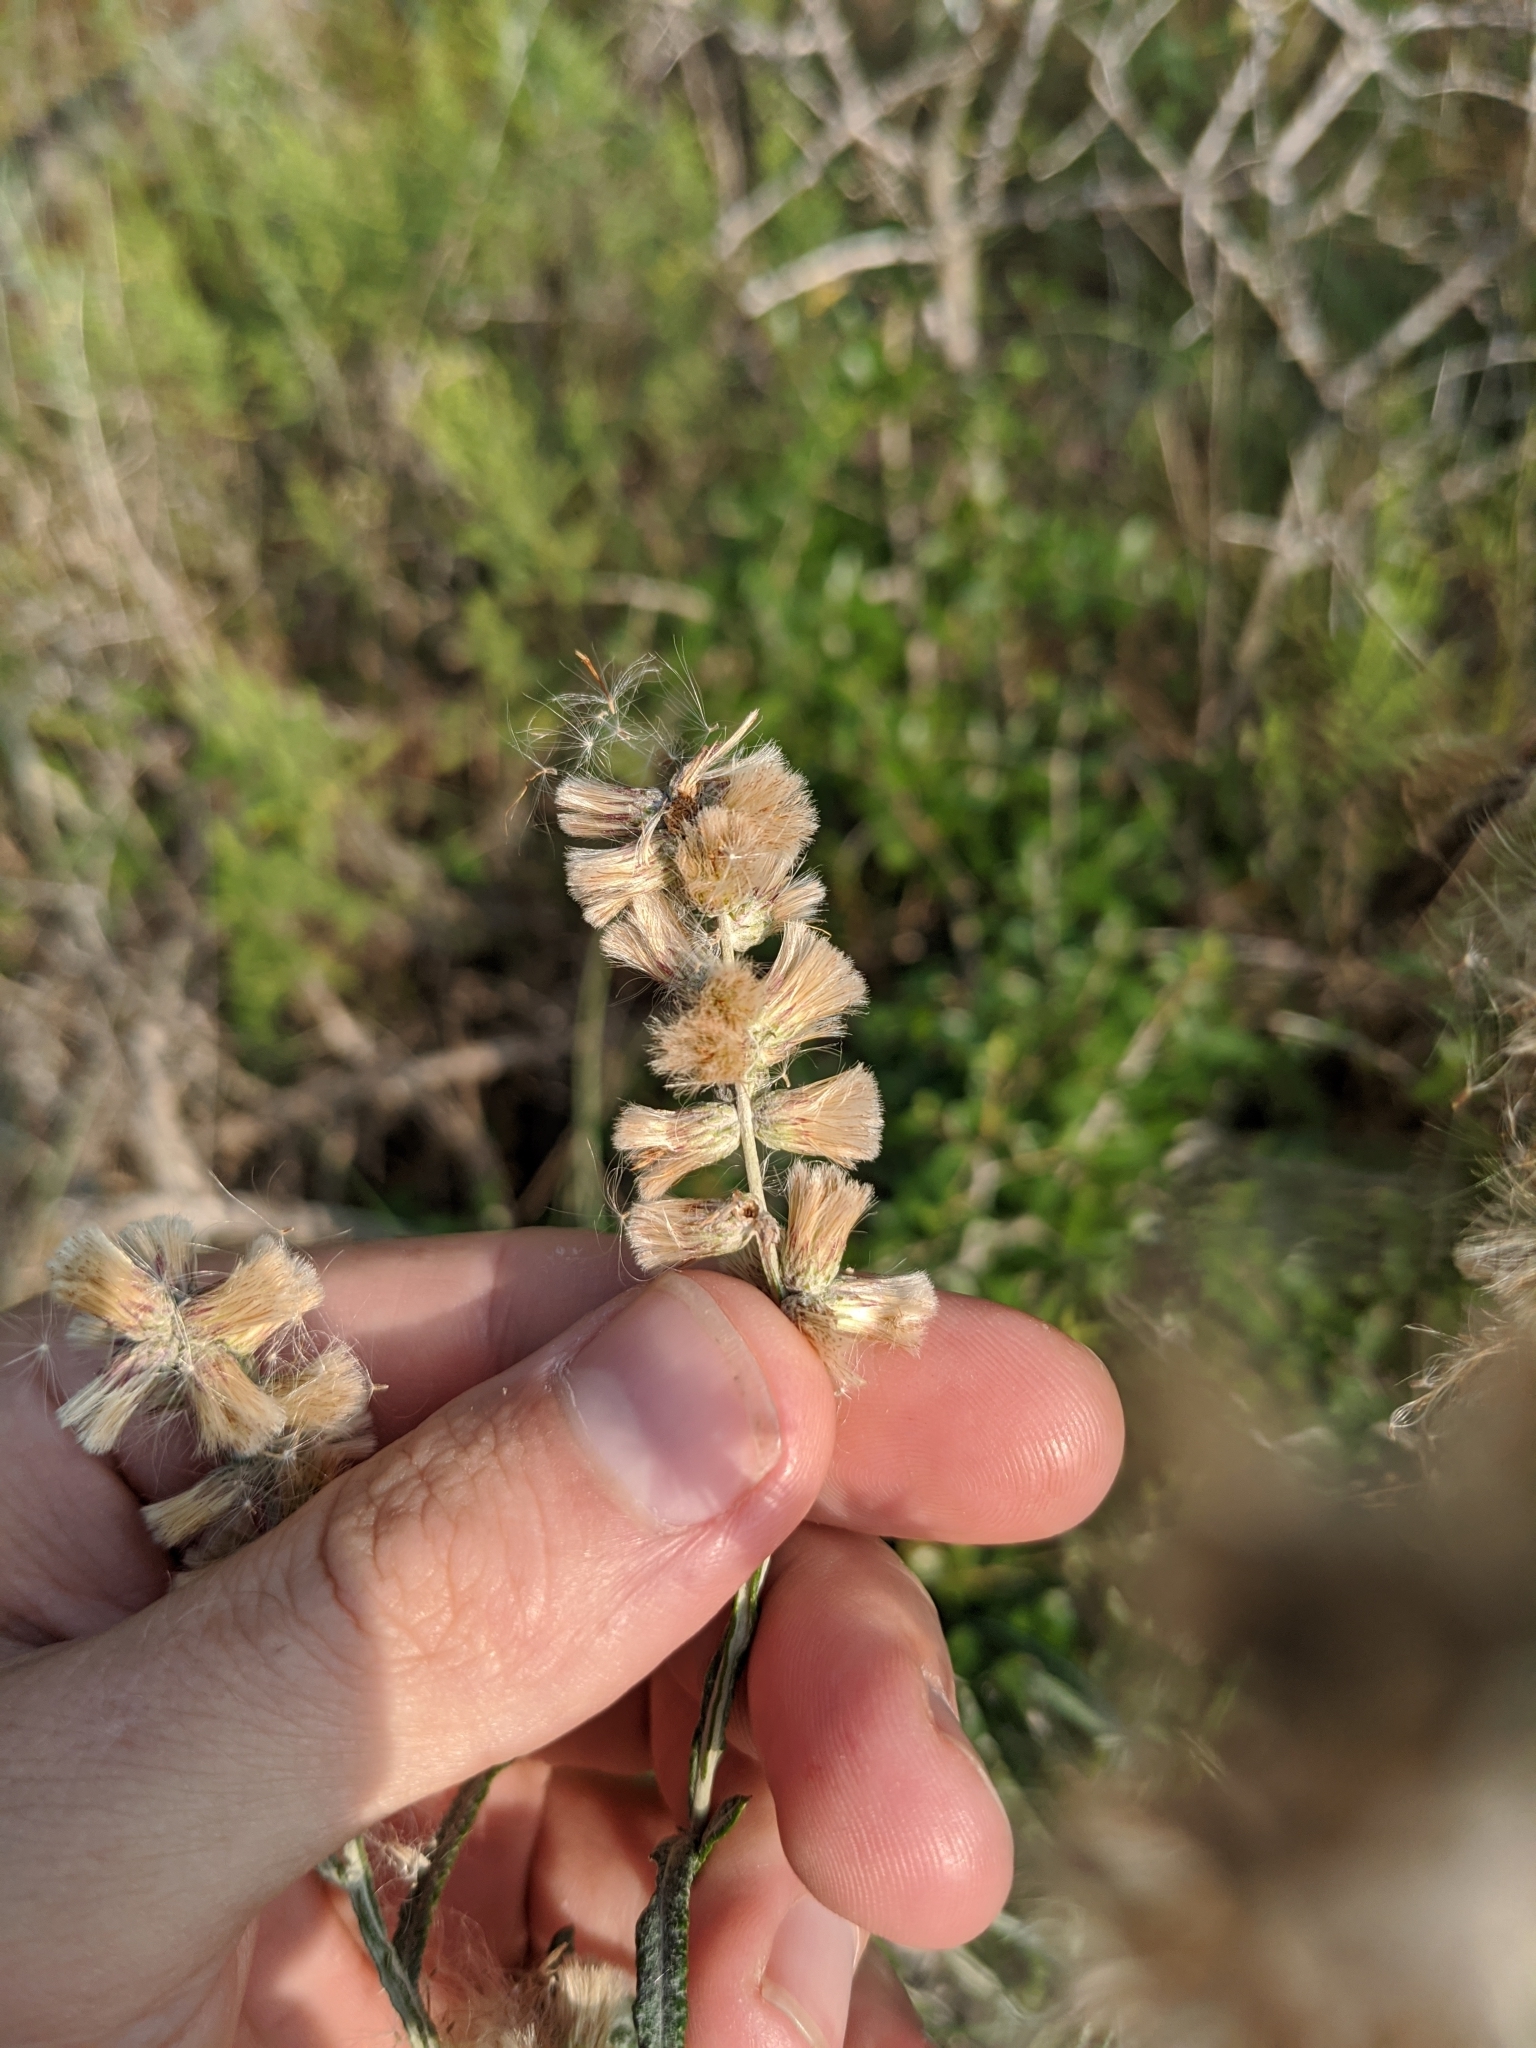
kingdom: Plantae
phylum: Tracheophyta
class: Magnoliopsida
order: Asterales
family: Asteraceae
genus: Pterocaulon
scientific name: Pterocaulon virgatum
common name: Wand blackroot
